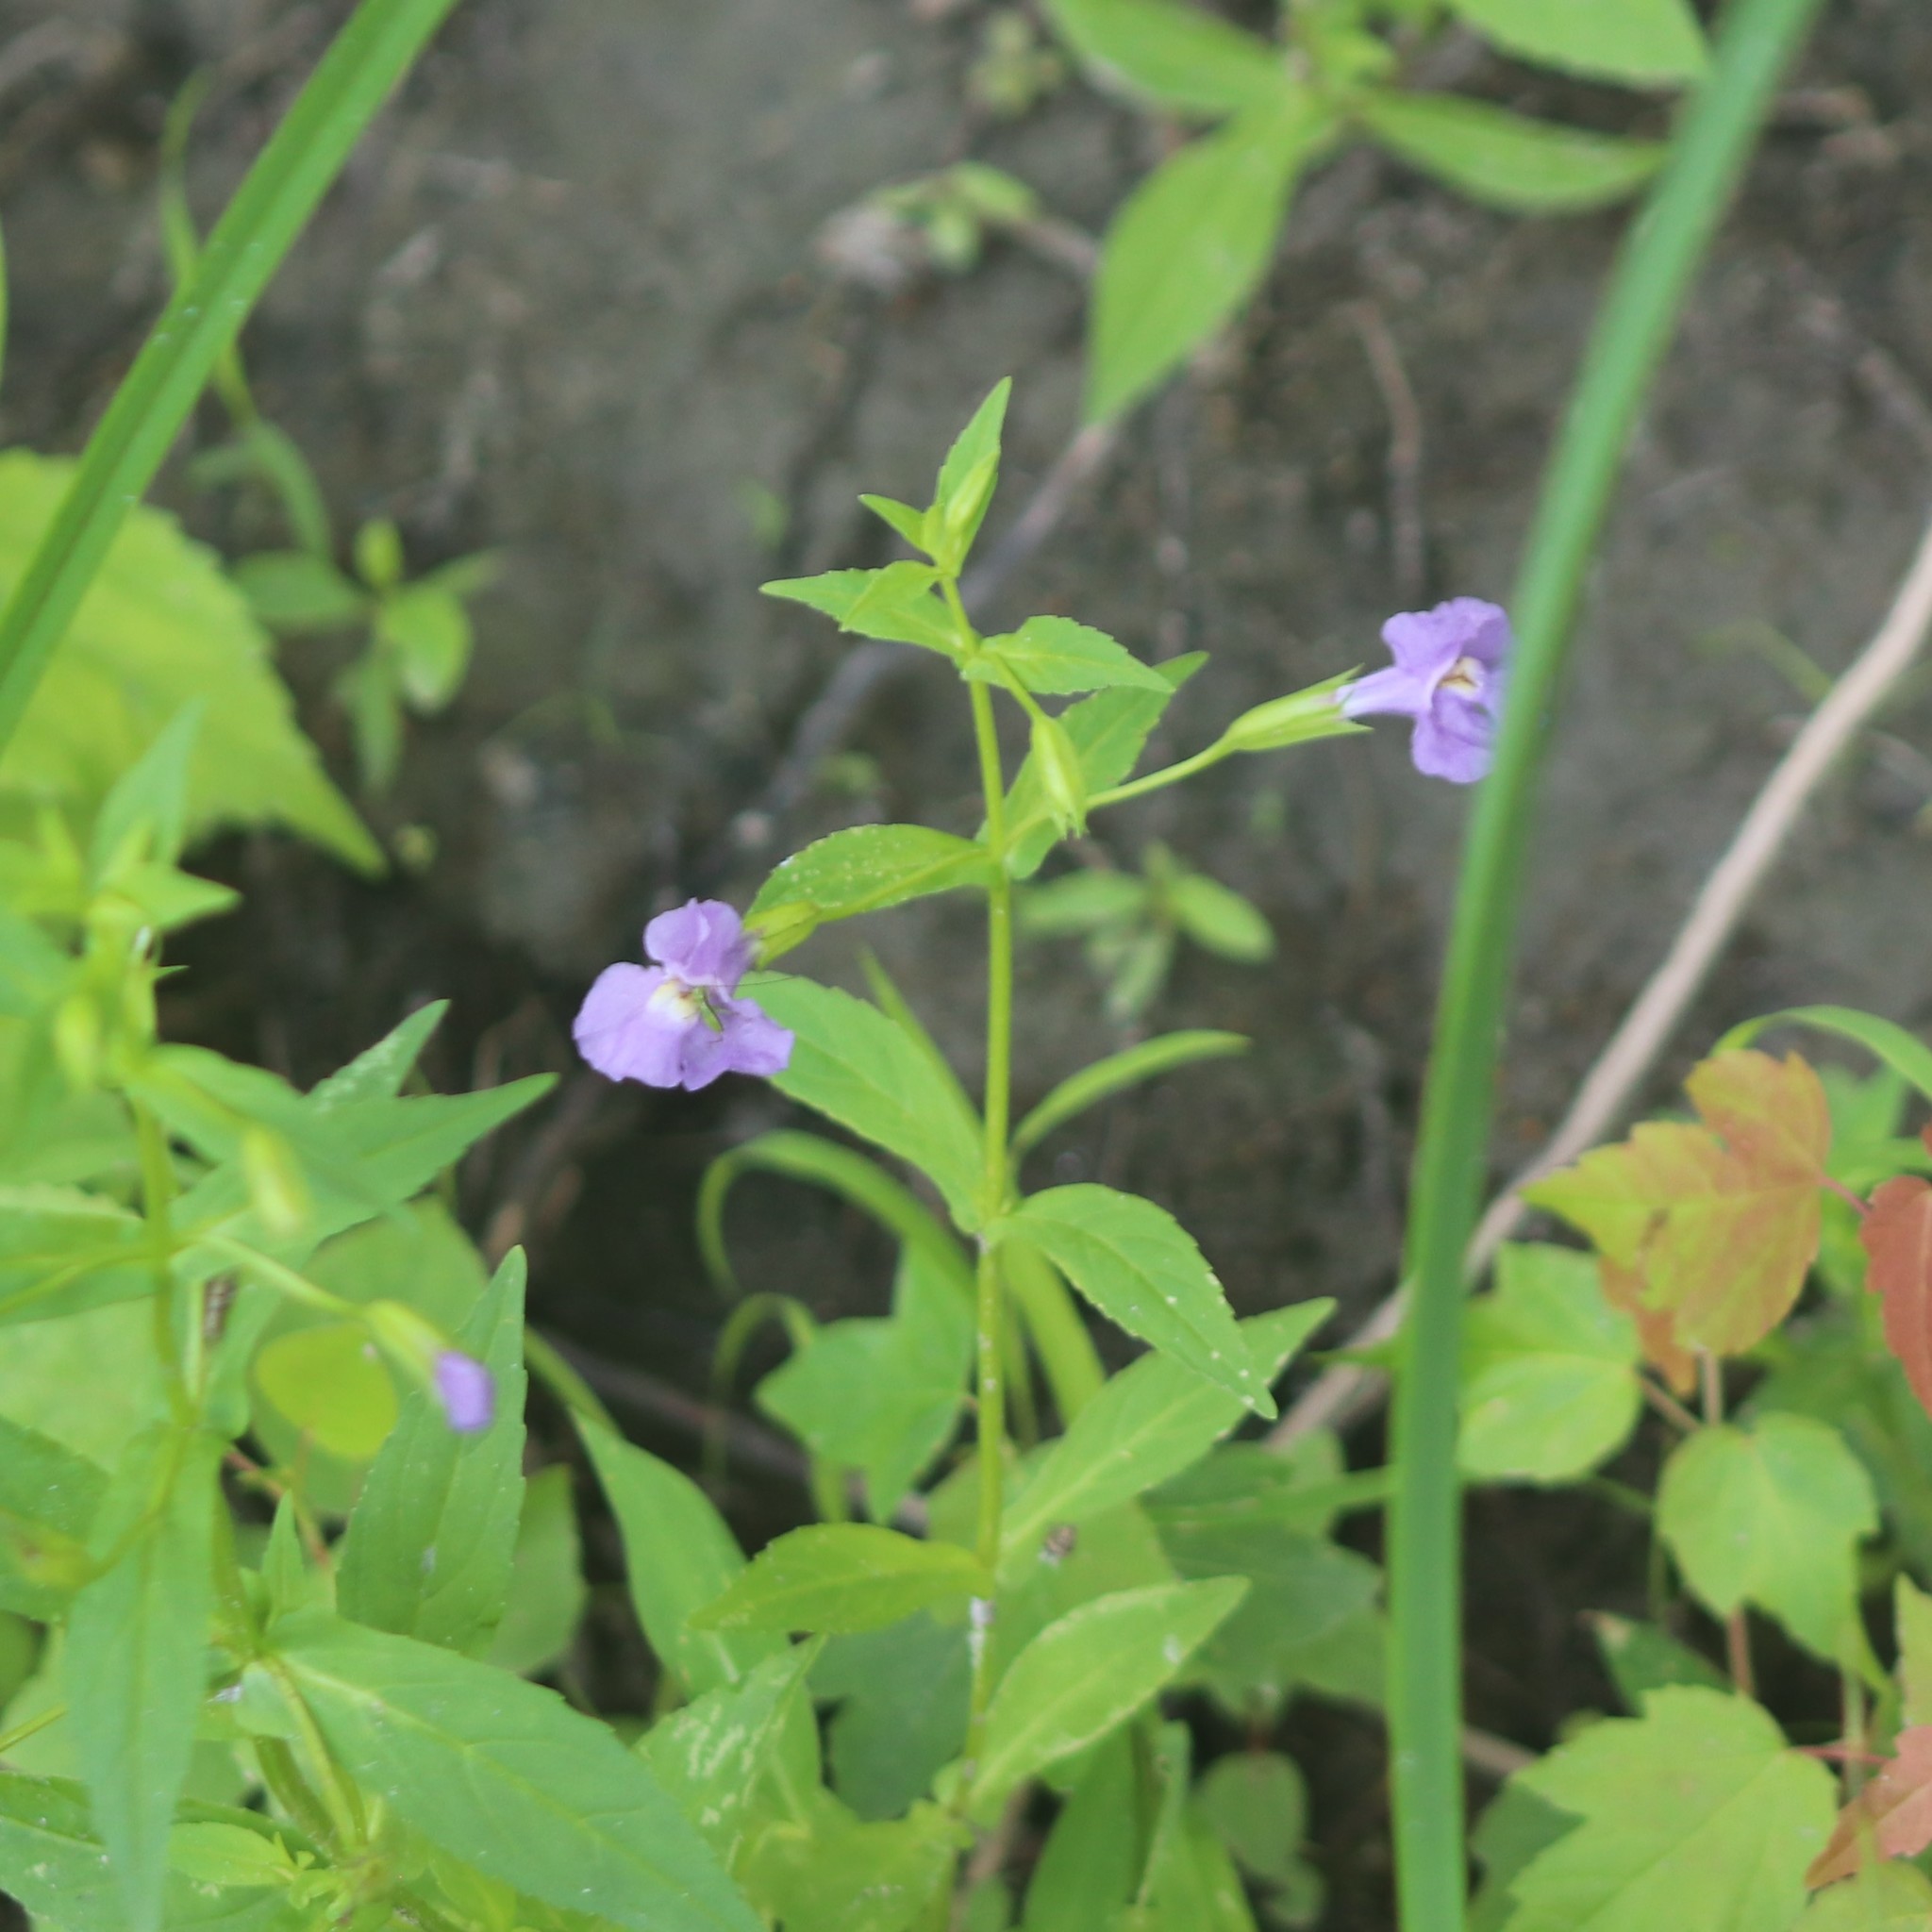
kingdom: Plantae
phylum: Tracheophyta
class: Magnoliopsida
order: Lamiales
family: Phrymaceae
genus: Mimulus
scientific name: Mimulus ringens
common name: Allegheny monkeyflower
